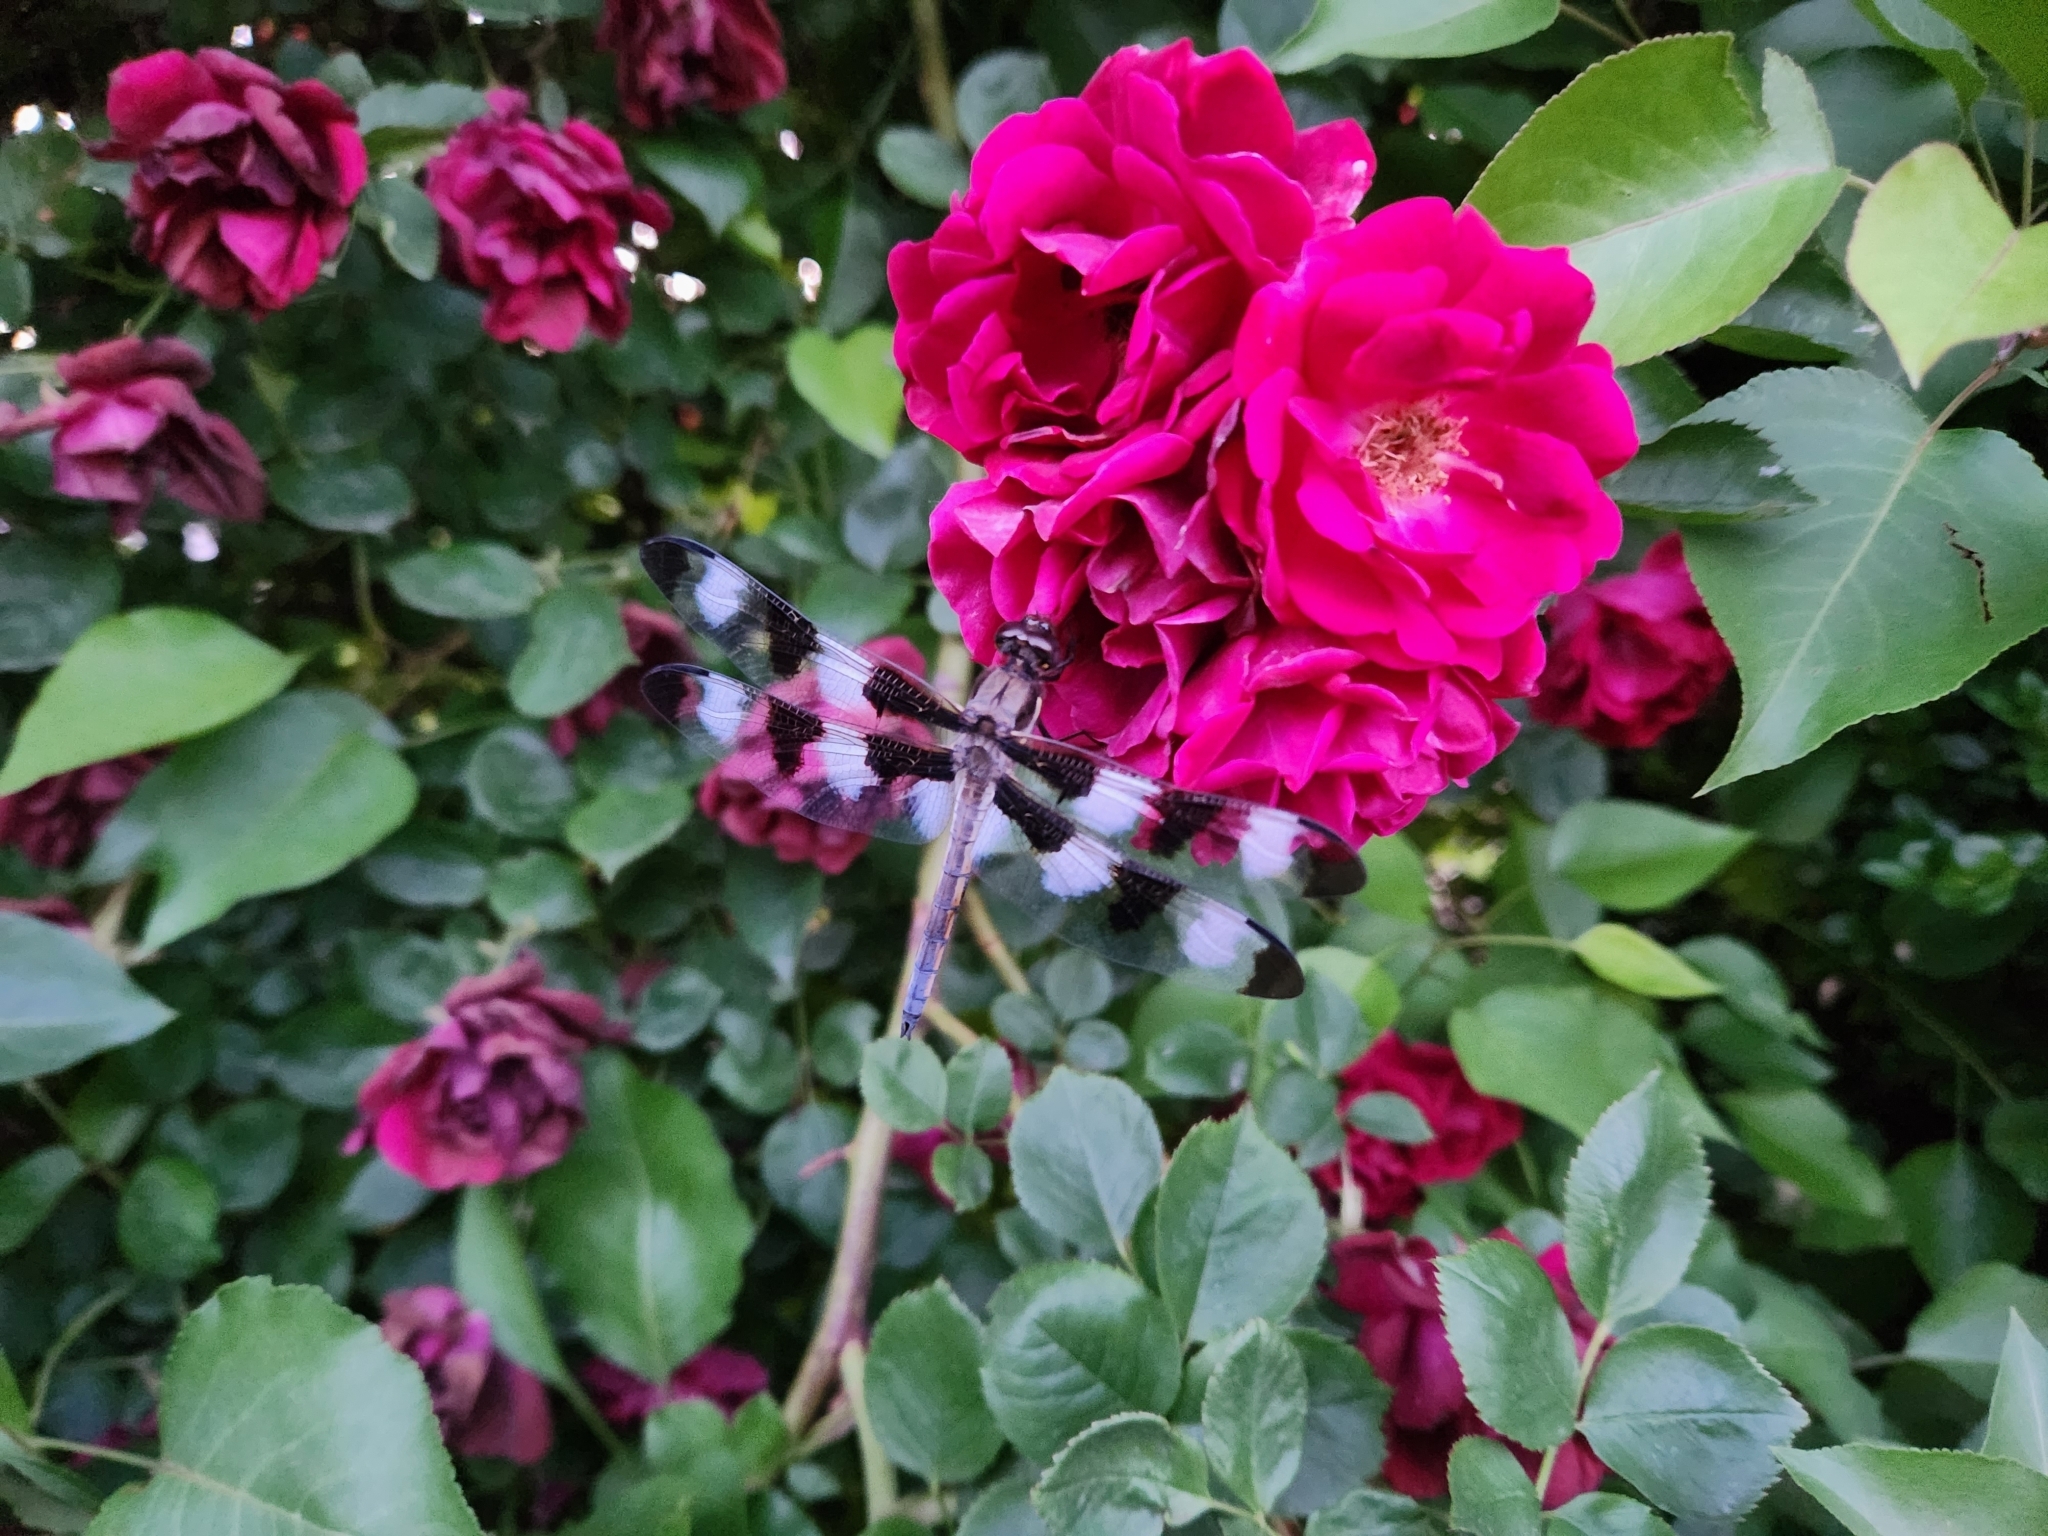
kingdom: Animalia
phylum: Arthropoda
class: Insecta
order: Odonata
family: Libellulidae
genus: Libellula
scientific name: Libellula pulchella
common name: Twelve-spotted skimmer
